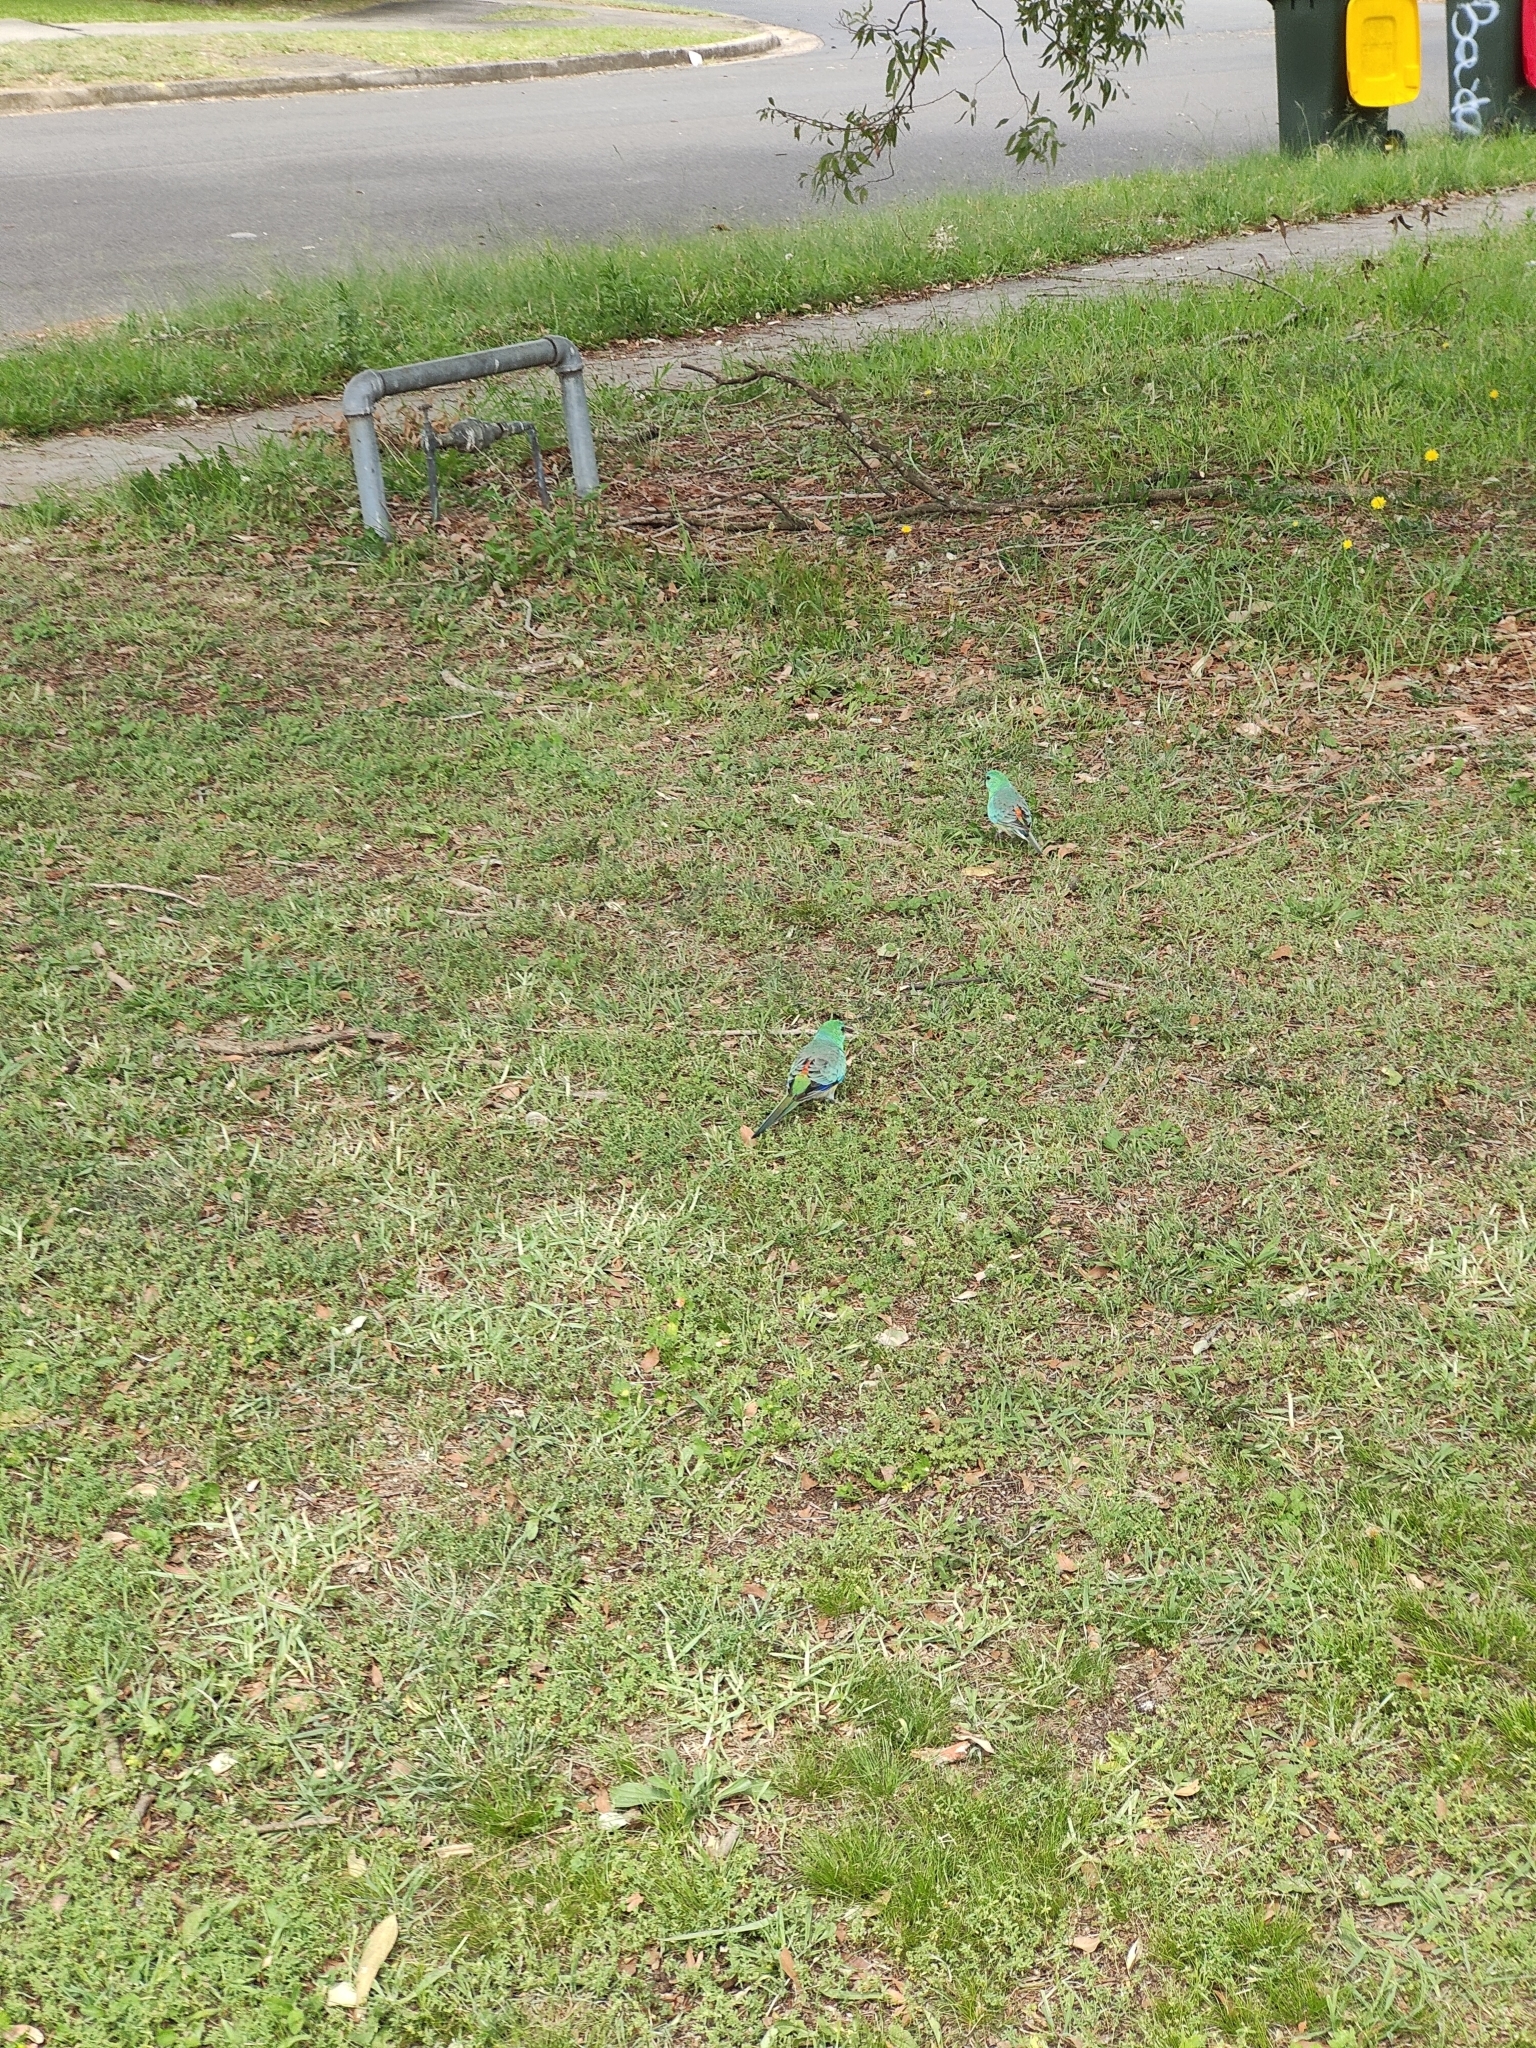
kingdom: Animalia
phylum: Chordata
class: Aves
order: Psittaciformes
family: Psittacidae
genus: Psephotus
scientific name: Psephotus haematonotus
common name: Red-rumped parrot
